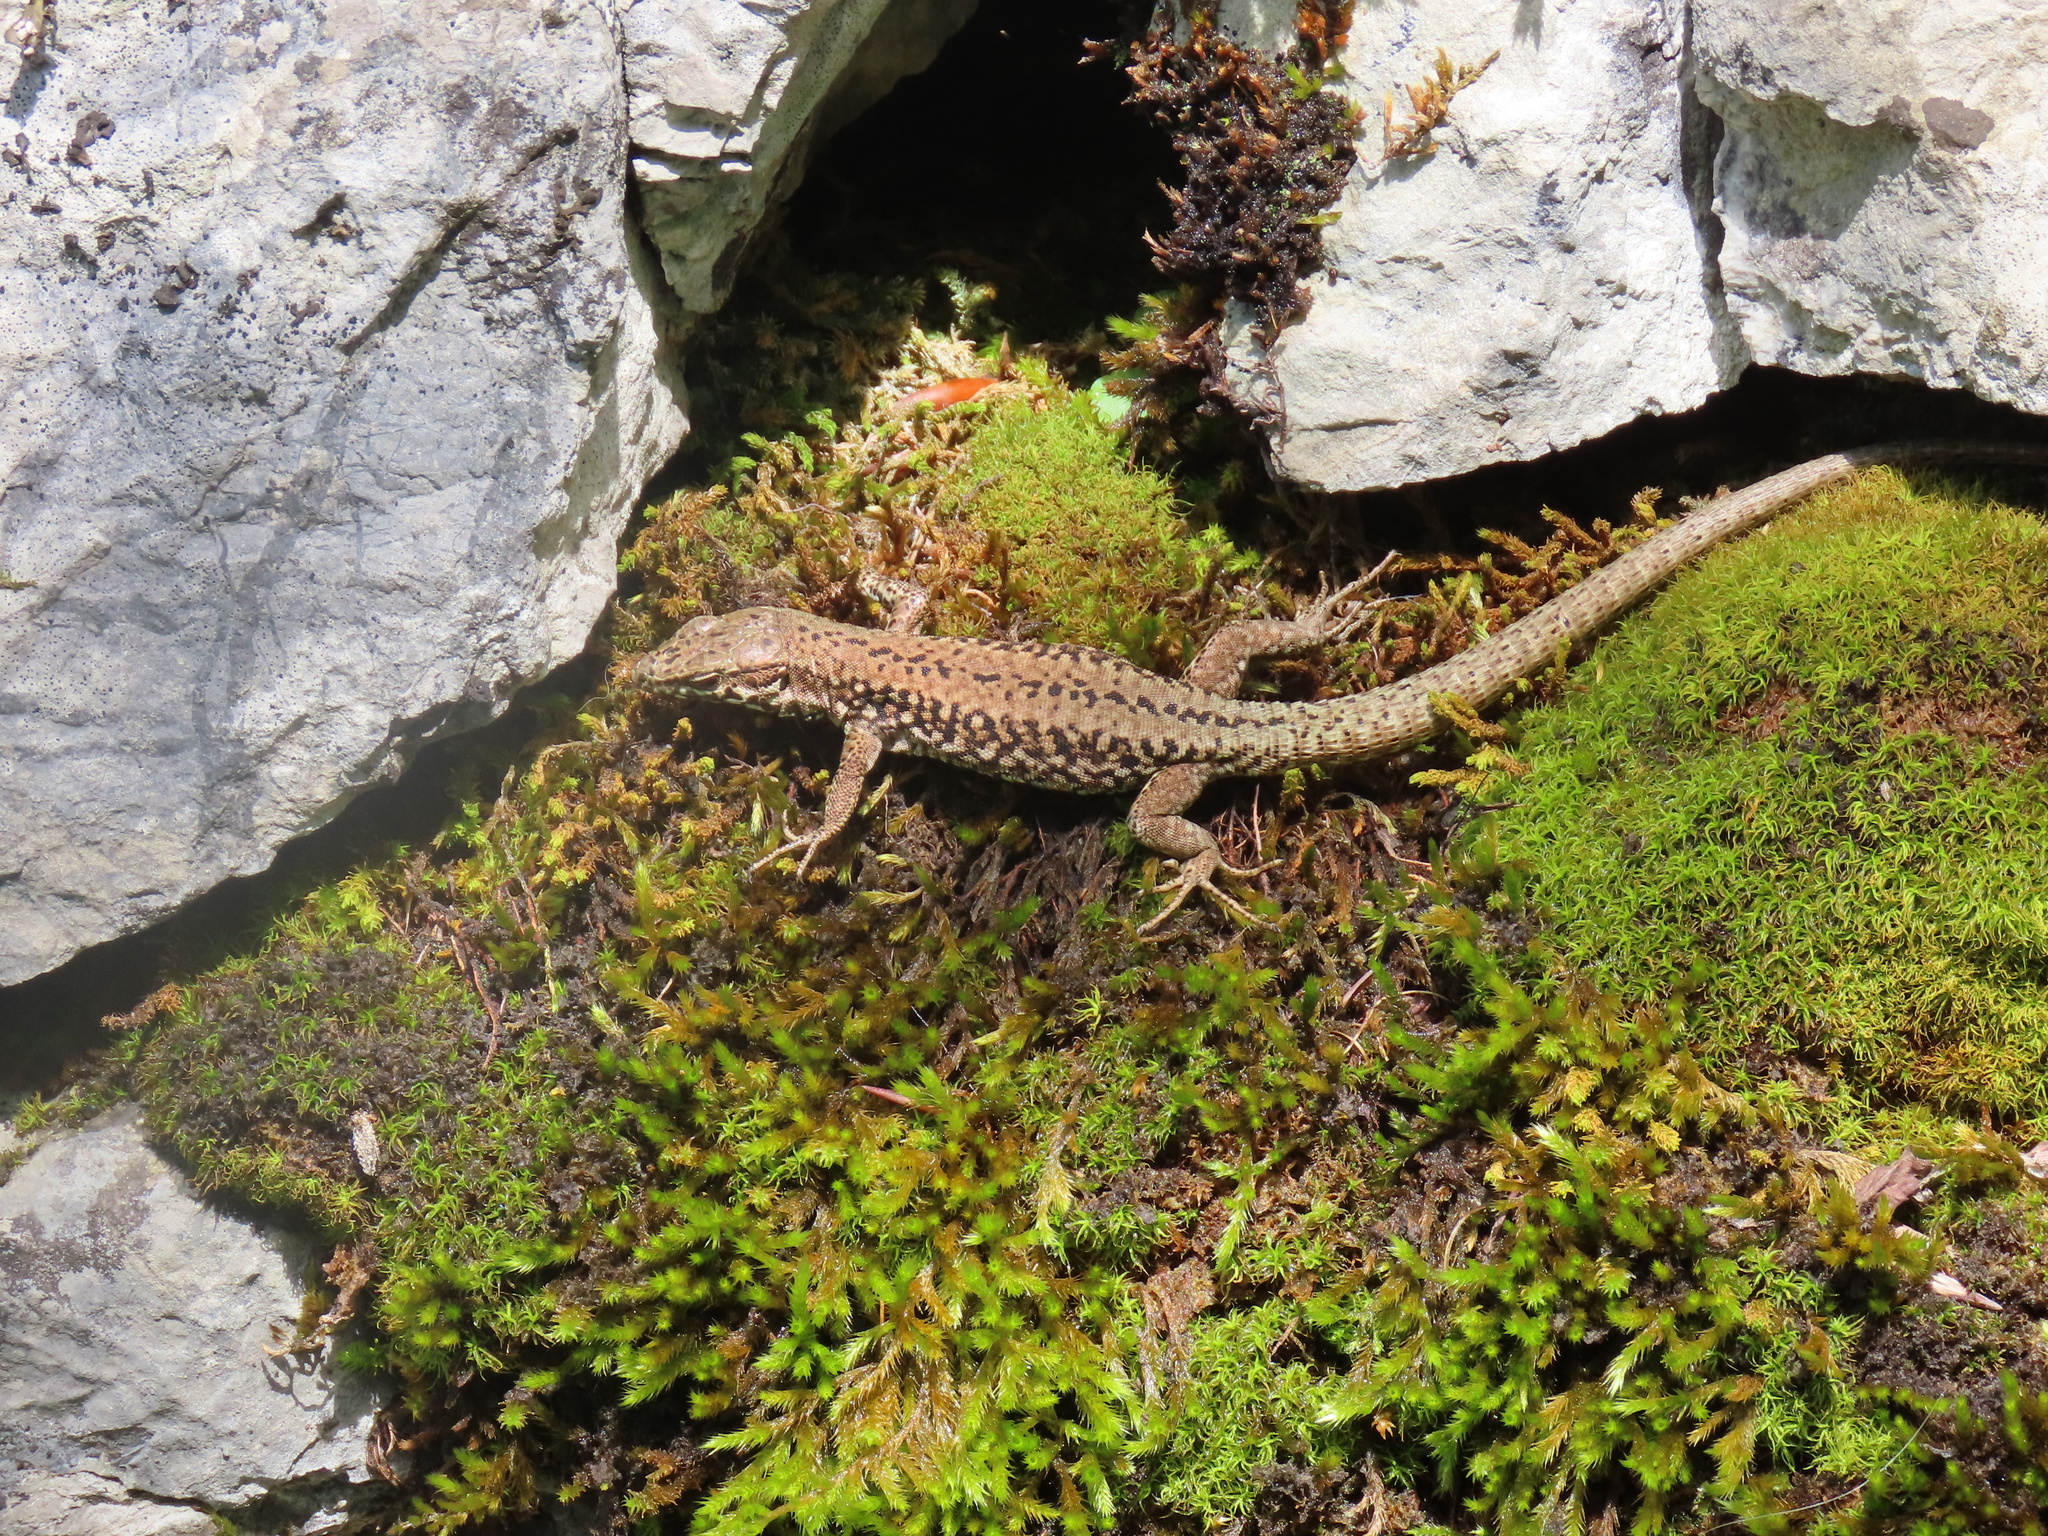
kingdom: Animalia
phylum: Chordata
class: Squamata
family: Lacertidae
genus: Podarcis
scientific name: Podarcis muralis
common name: Common wall lizard
